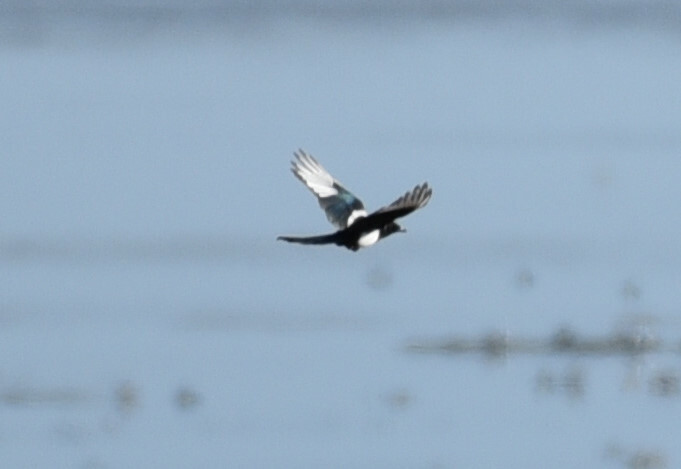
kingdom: Animalia
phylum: Chordata
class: Aves
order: Passeriformes
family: Corvidae
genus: Pica
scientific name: Pica hudsonia
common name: Black-billed magpie
